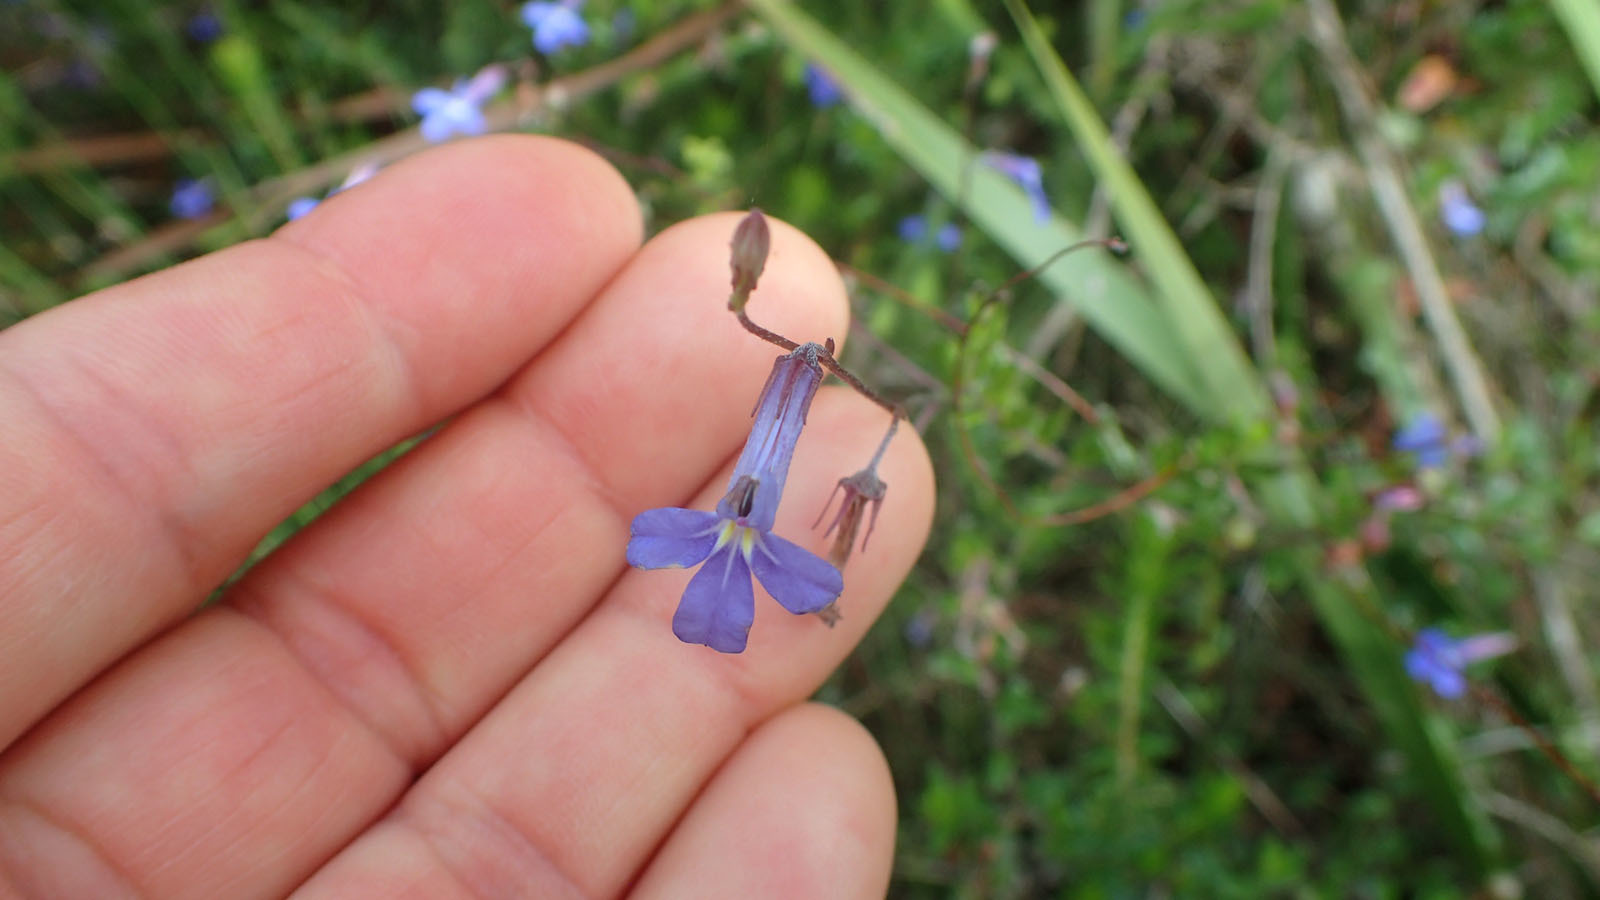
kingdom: Plantae
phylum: Tracheophyta
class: Magnoliopsida
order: Asterales
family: Campanulaceae
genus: Lobelia
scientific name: Lobelia tomentosa
